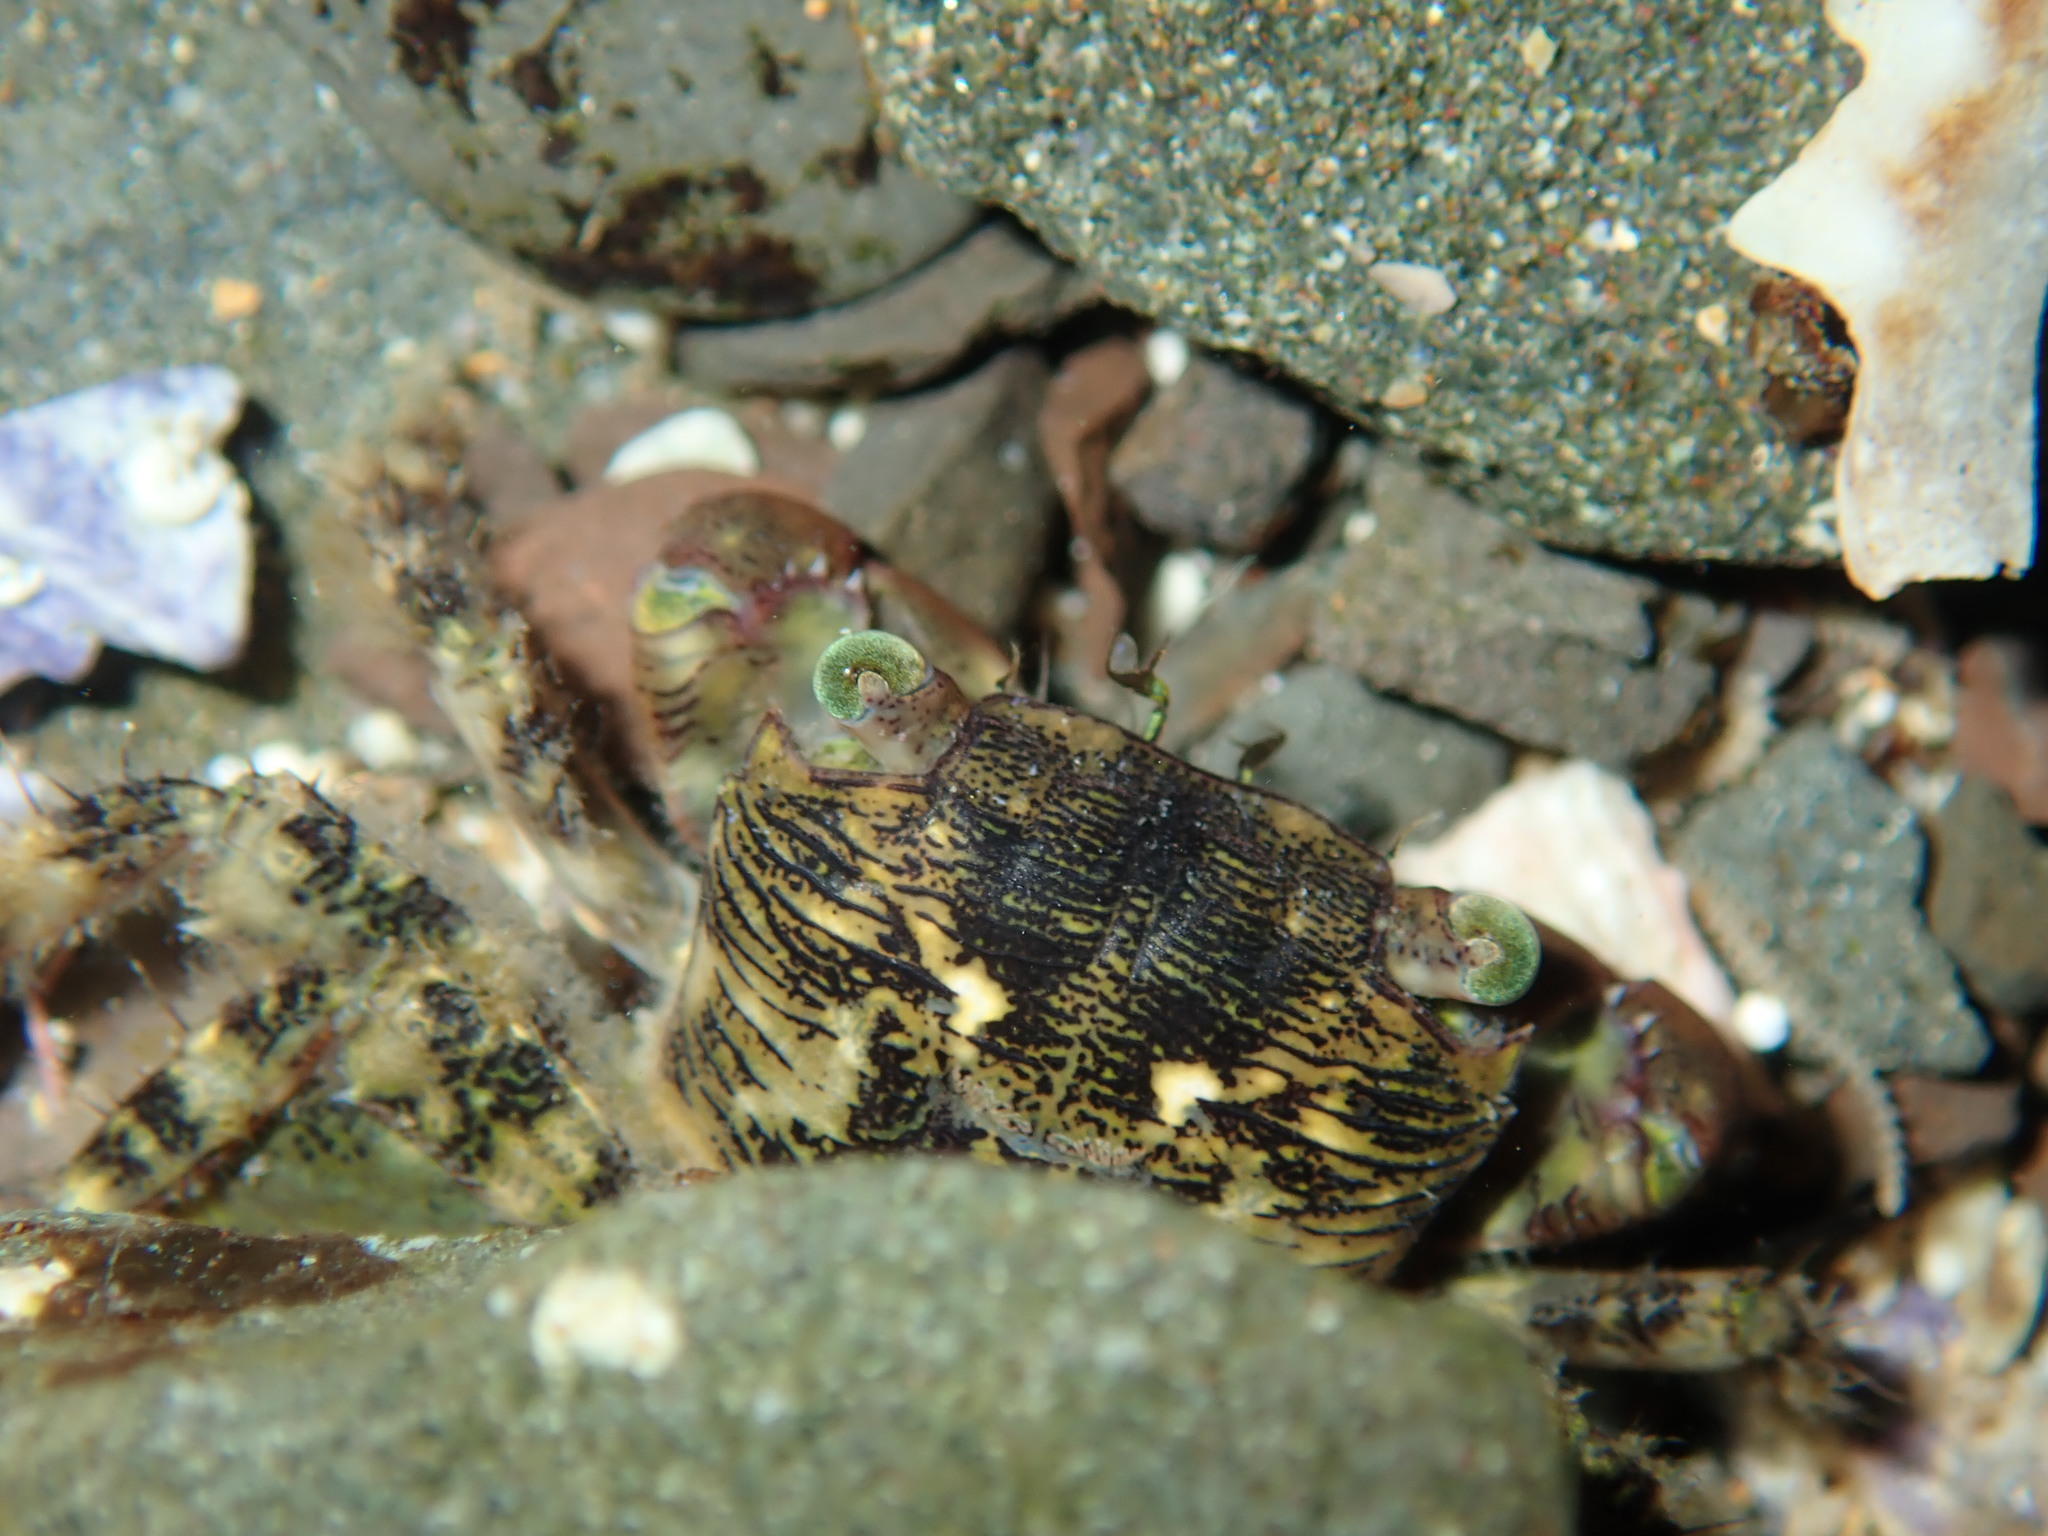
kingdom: Animalia
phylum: Arthropoda
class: Malacostraca
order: Decapoda
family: Grapsidae
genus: Pachygrapsus
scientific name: Pachygrapsus laevimanus
